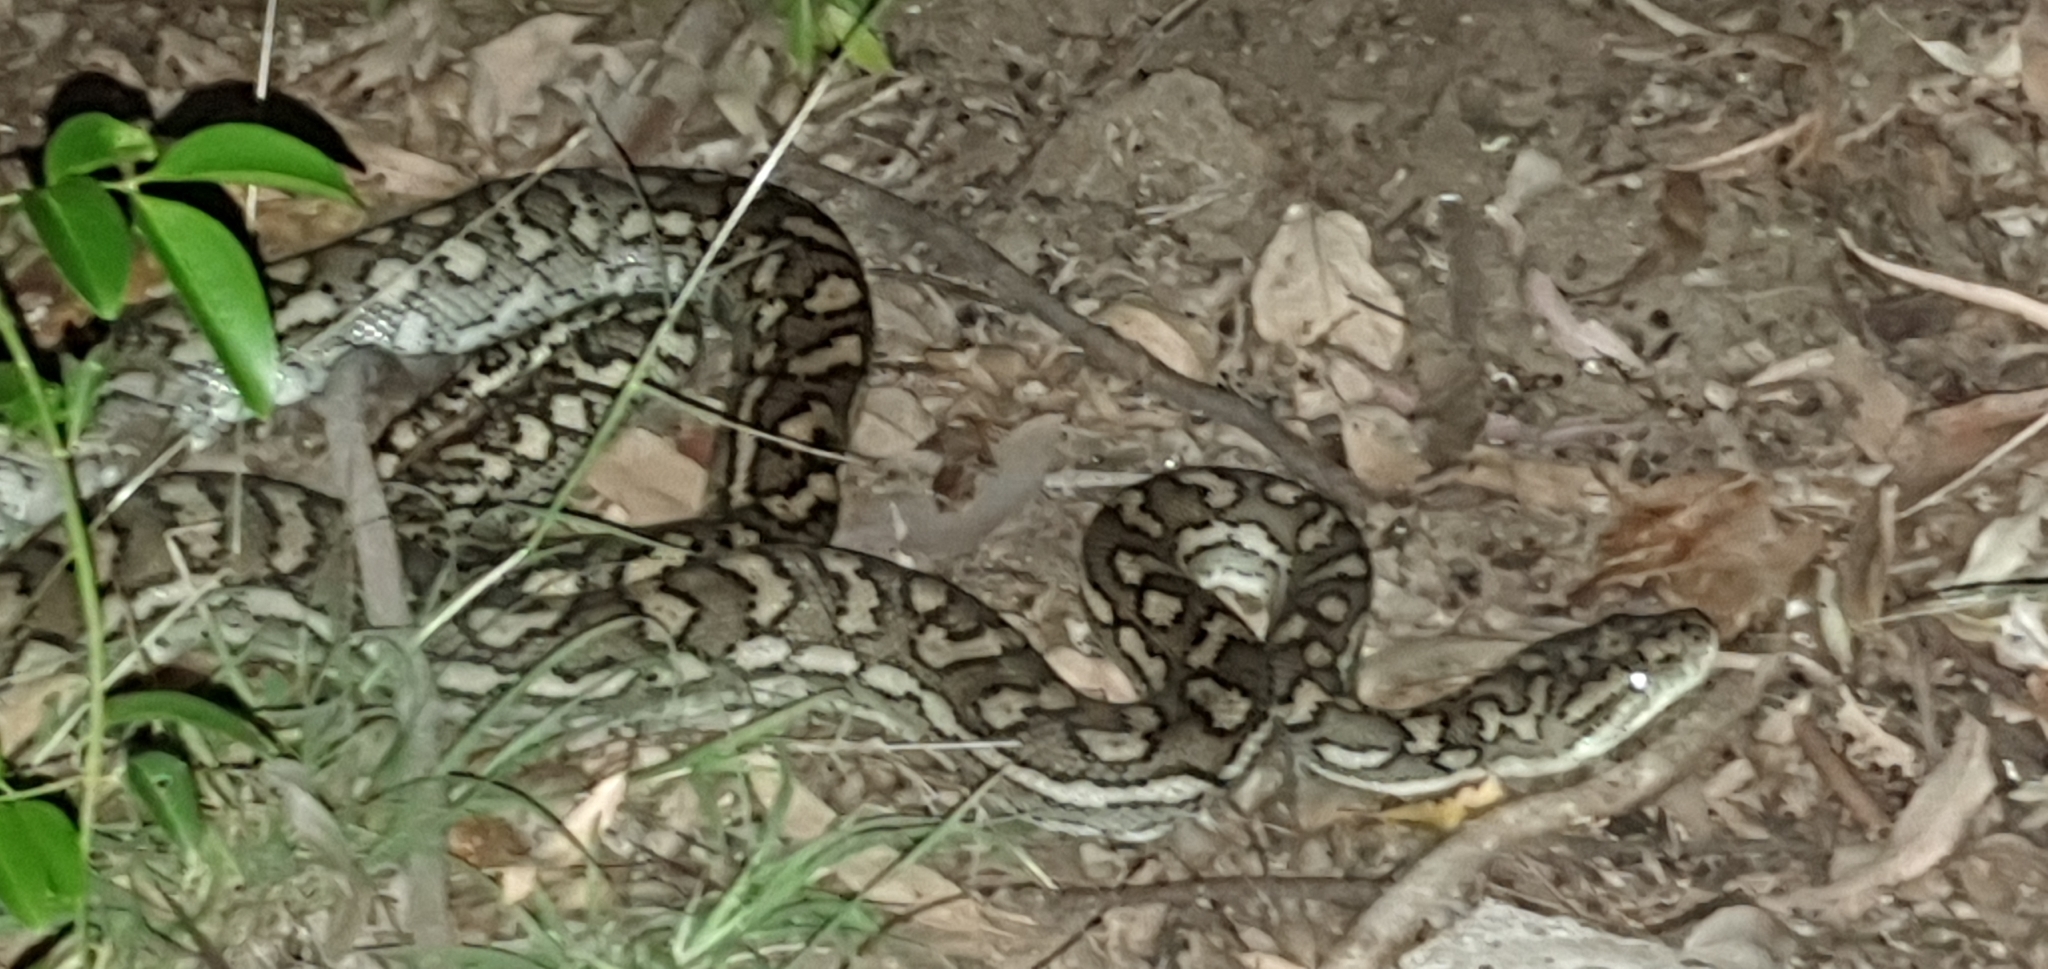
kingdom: Animalia
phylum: Chordata
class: Squamata
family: Pythonidae
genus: Morelia
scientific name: Morelia spilota
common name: Carpet python
